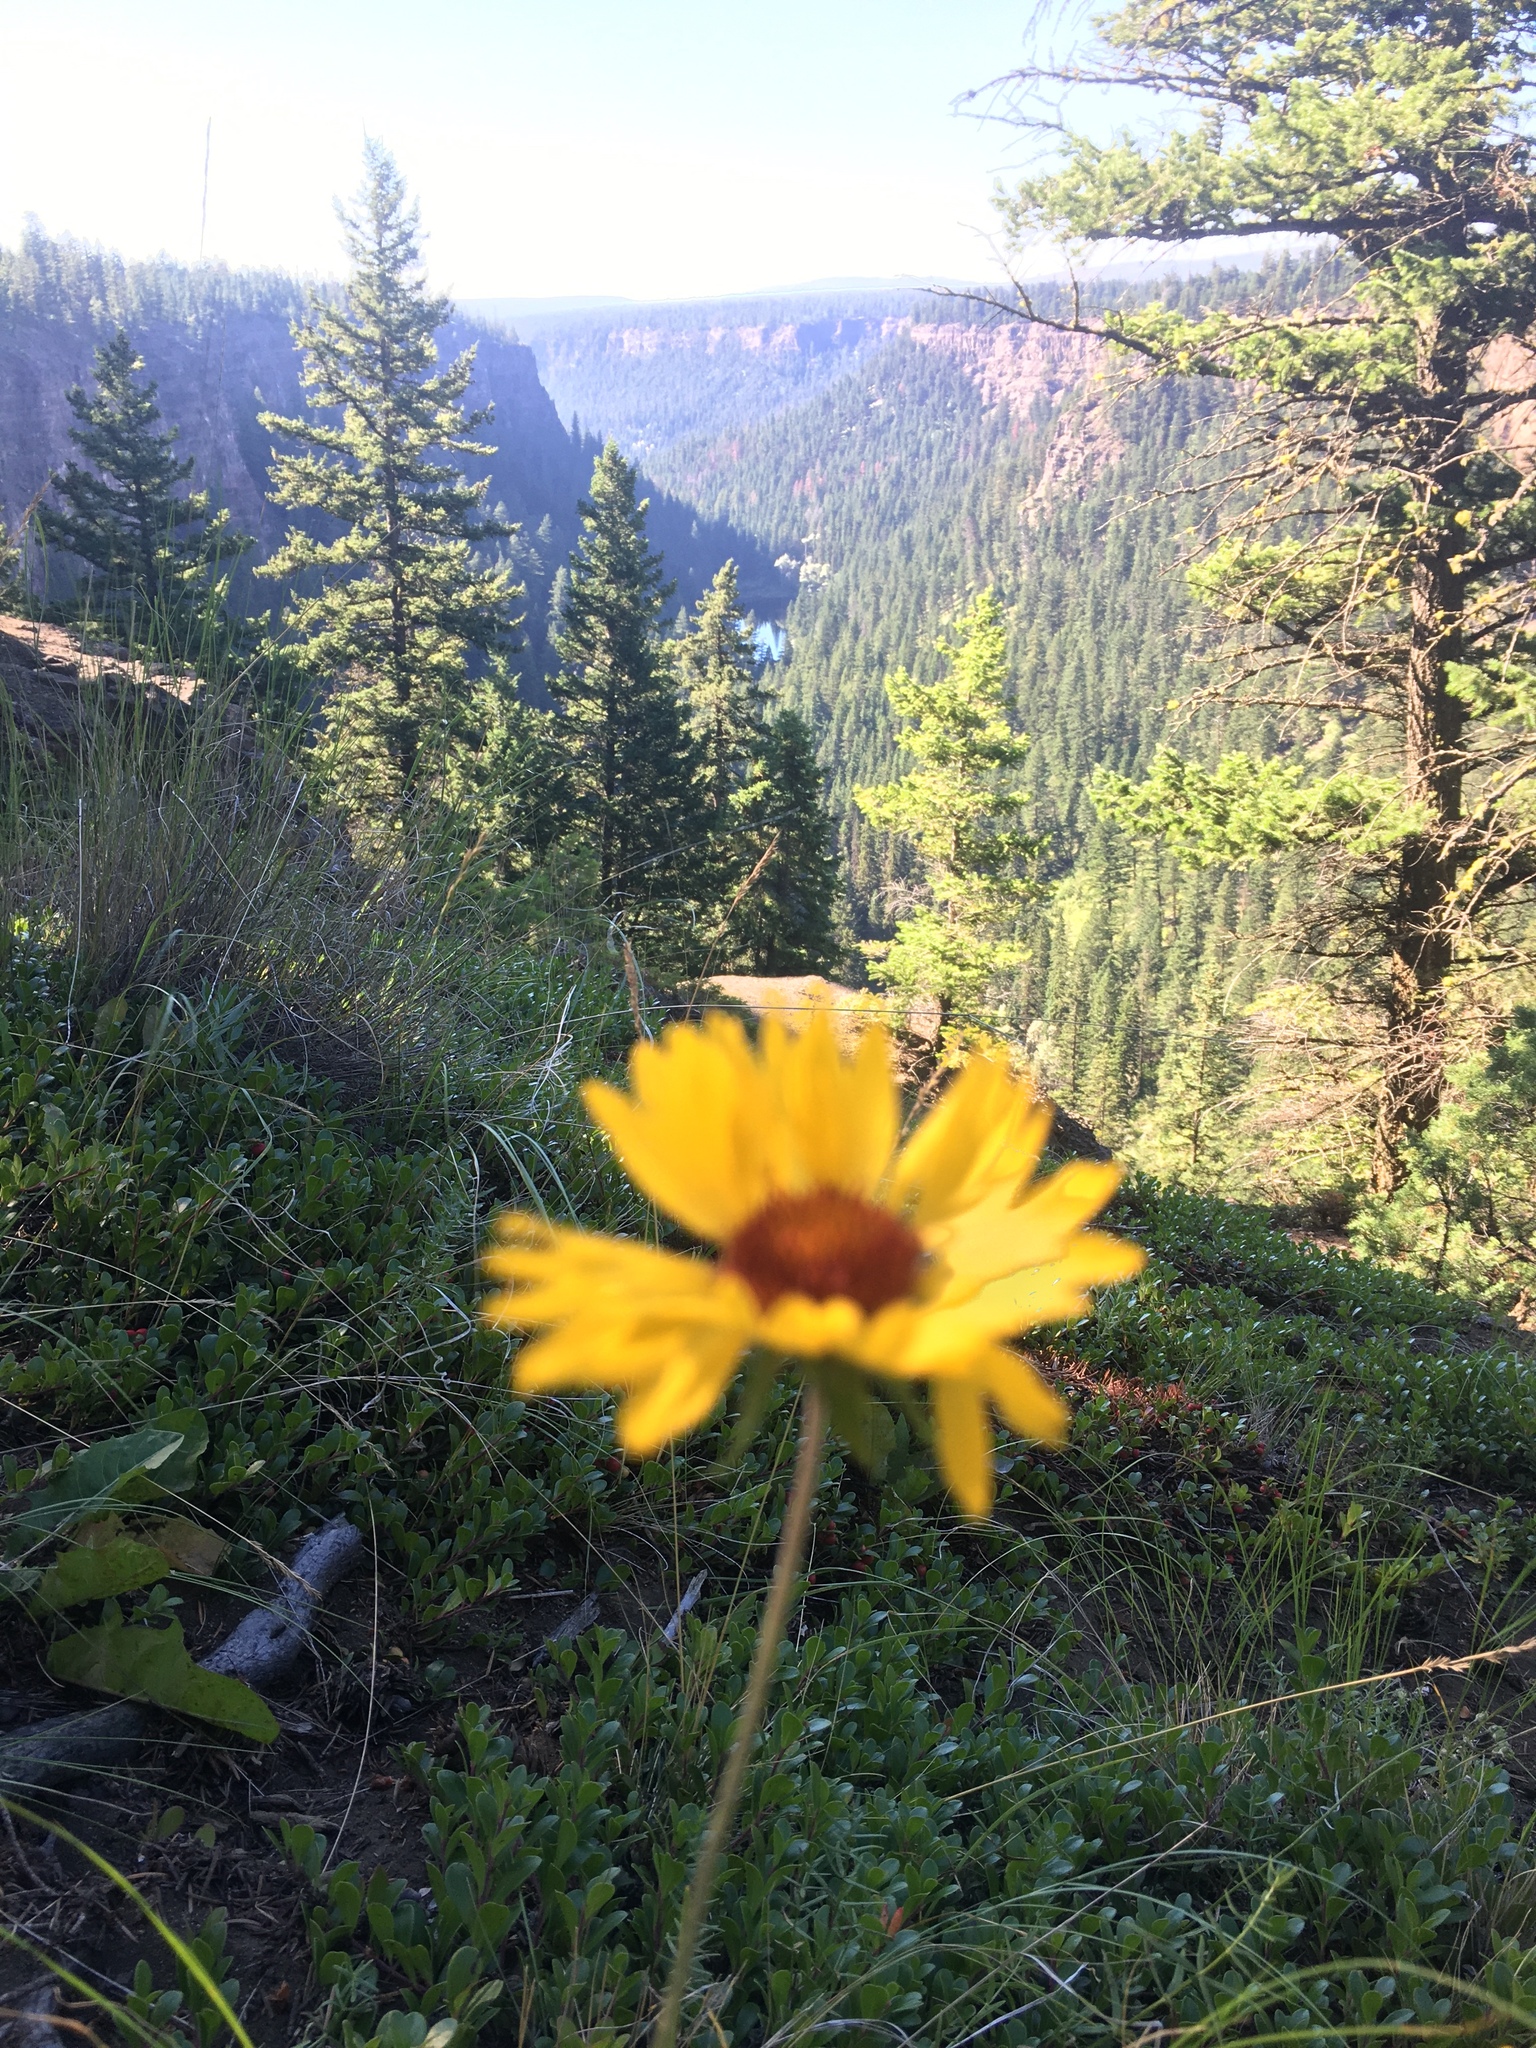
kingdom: Plantae
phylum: Tracheophyta
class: Magnoliopsida
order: Asterales
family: Asteraceae
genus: Gaillardia
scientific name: Gaillardia aristata
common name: Blanket-flower
